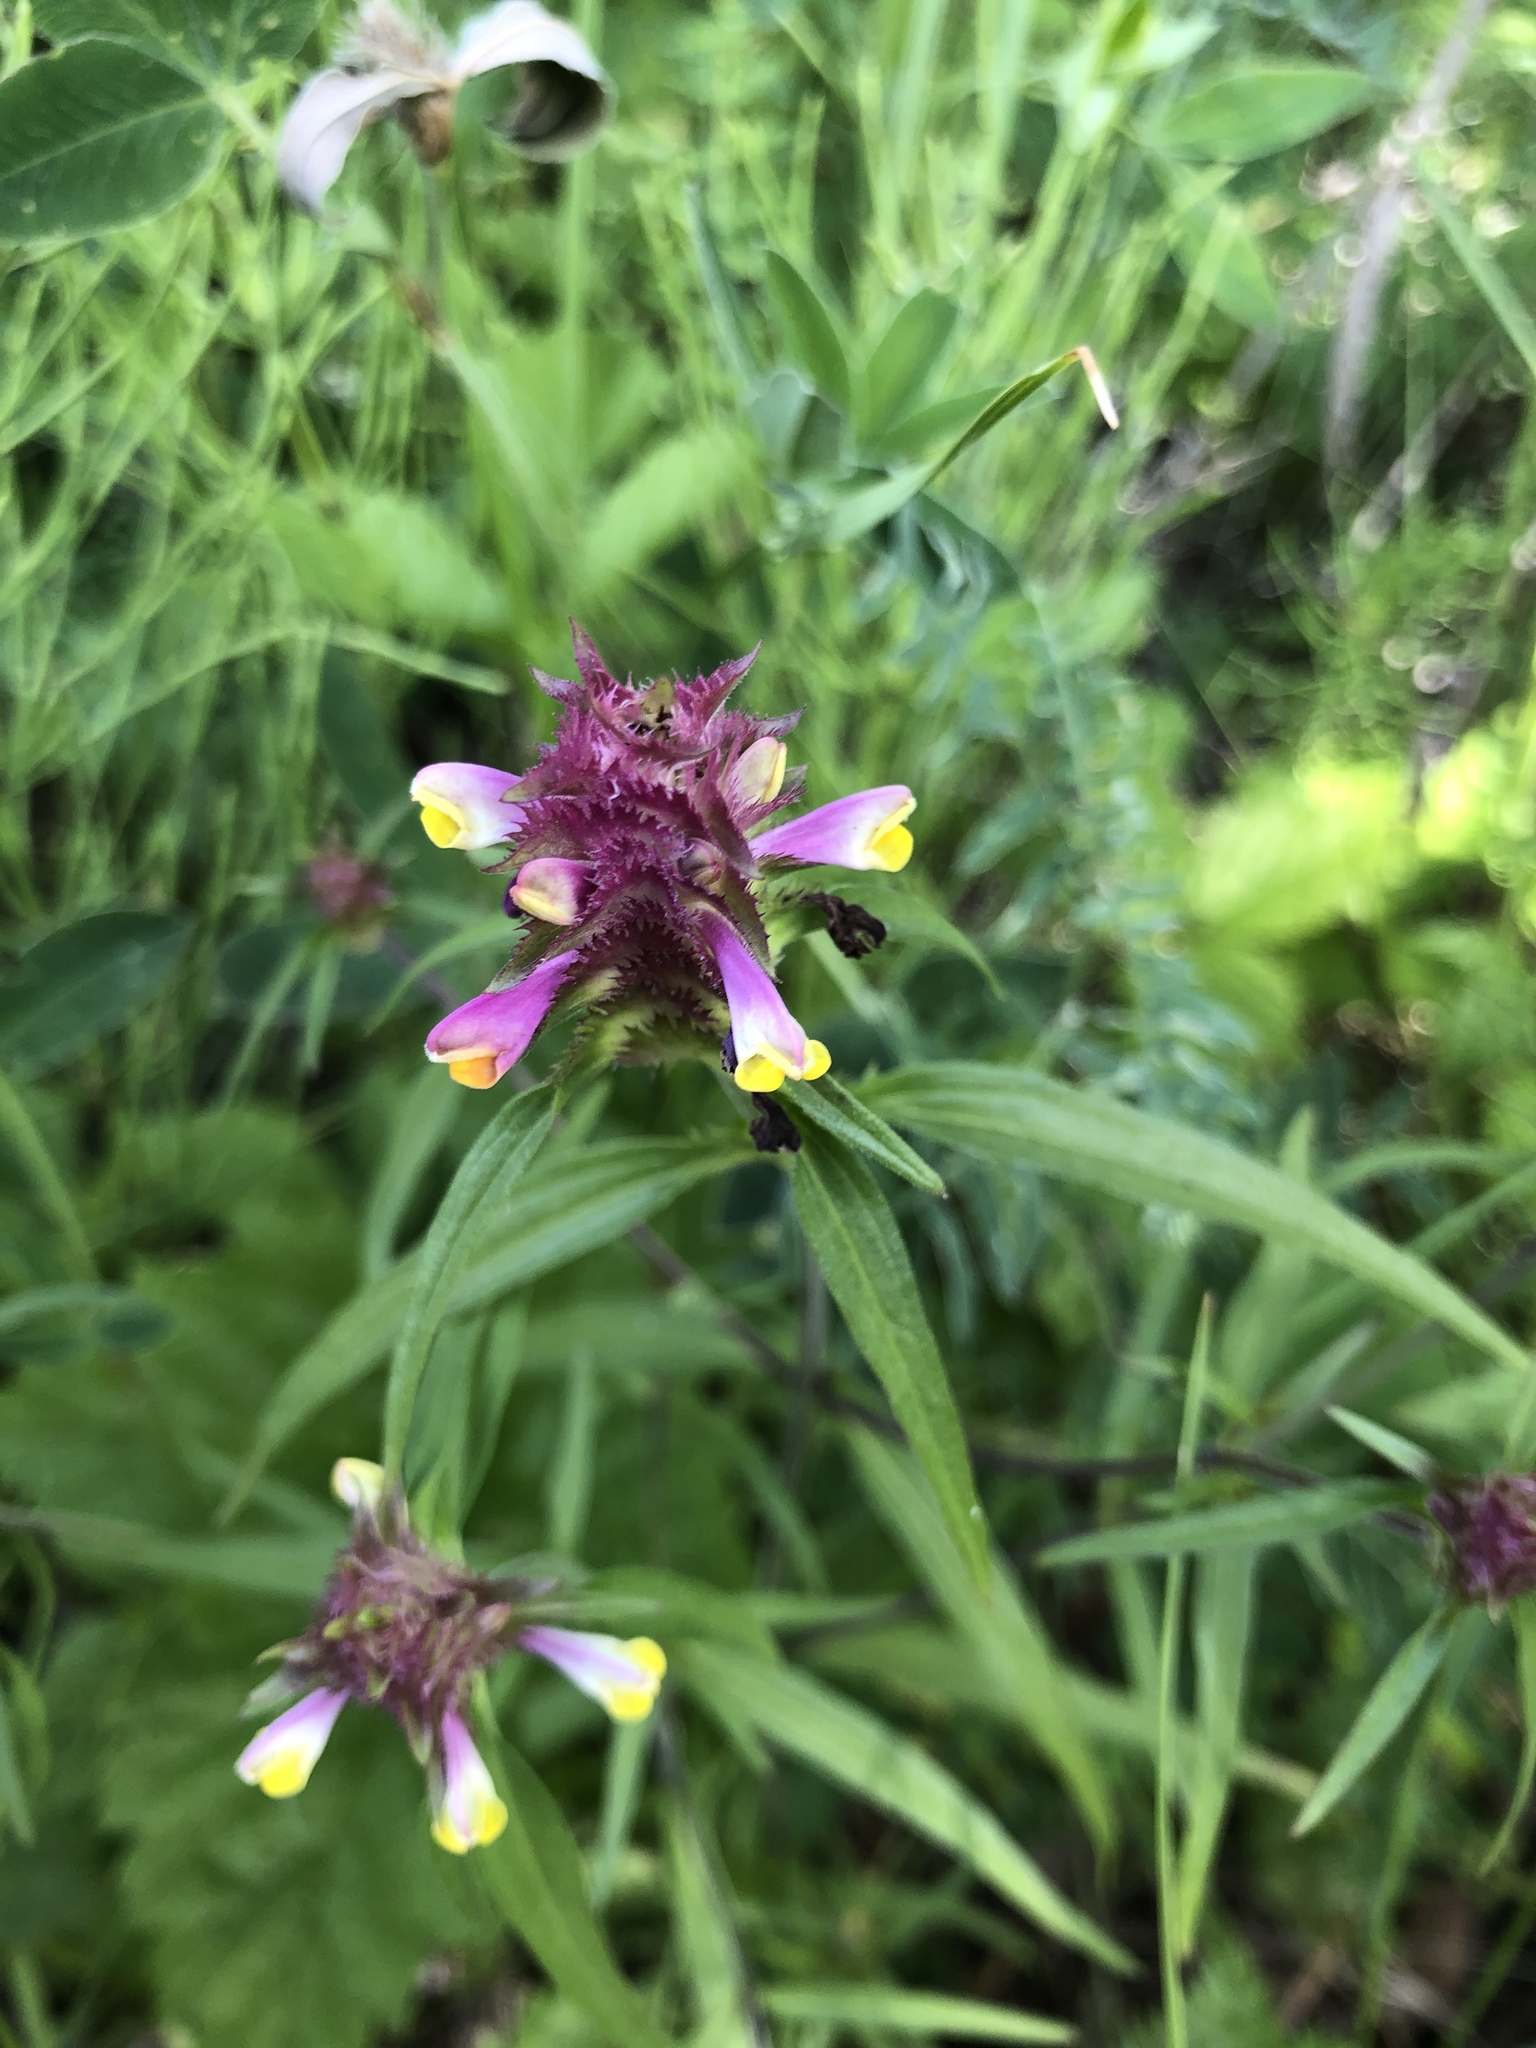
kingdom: Plantae
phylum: Tracheophyta
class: Magnoliopsida
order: Lamiales
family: Orobanchaceae
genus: Melampyrum
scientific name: Melampyrum cristatum
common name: Crested cow-wheat
